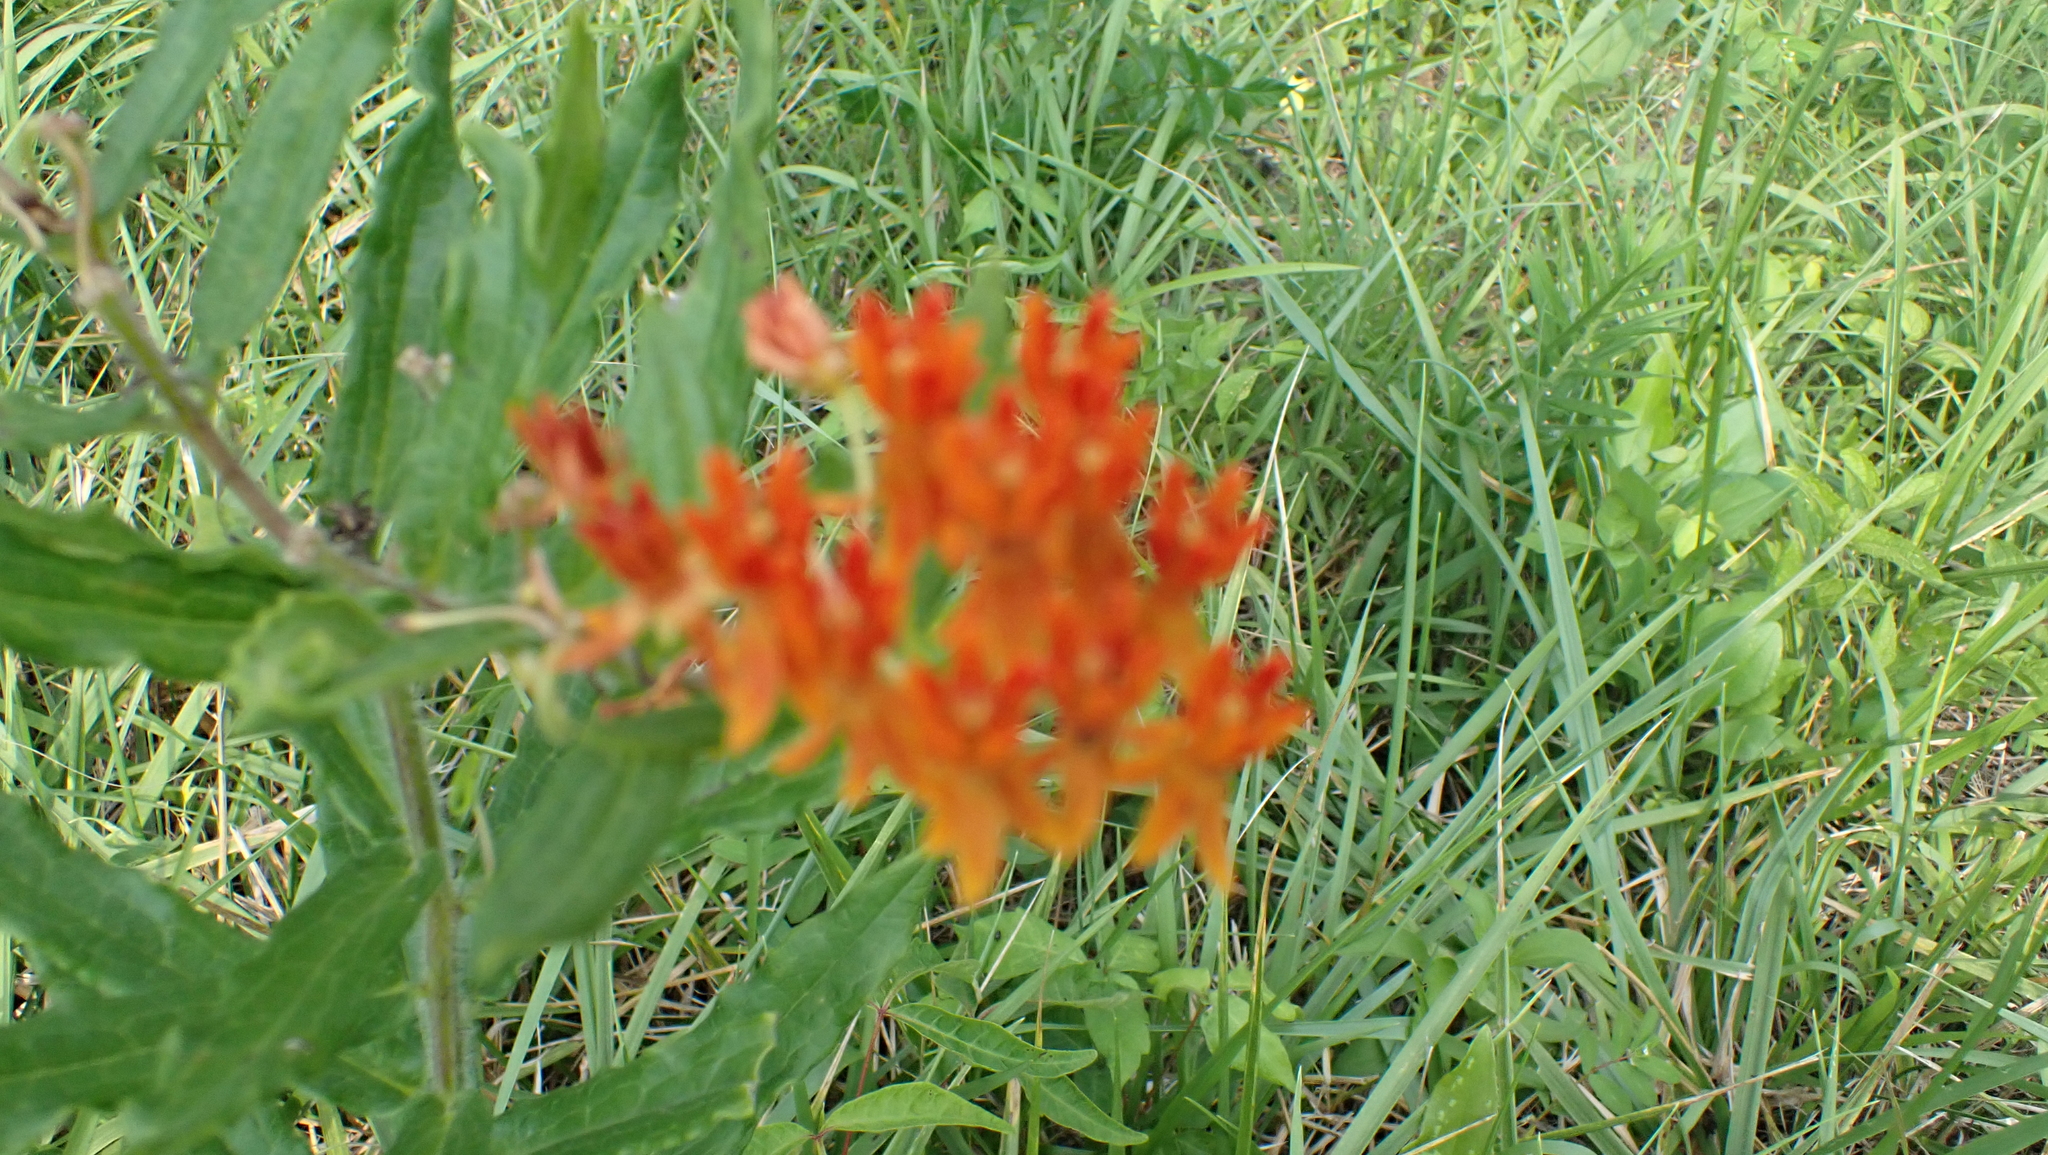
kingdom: Plantae
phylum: Tracheophyta
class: Magnoliopsida
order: Gentianales
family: Apocynaceae
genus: Asclepias
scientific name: Asclepias tuberosa
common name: Butterfly milkweed
